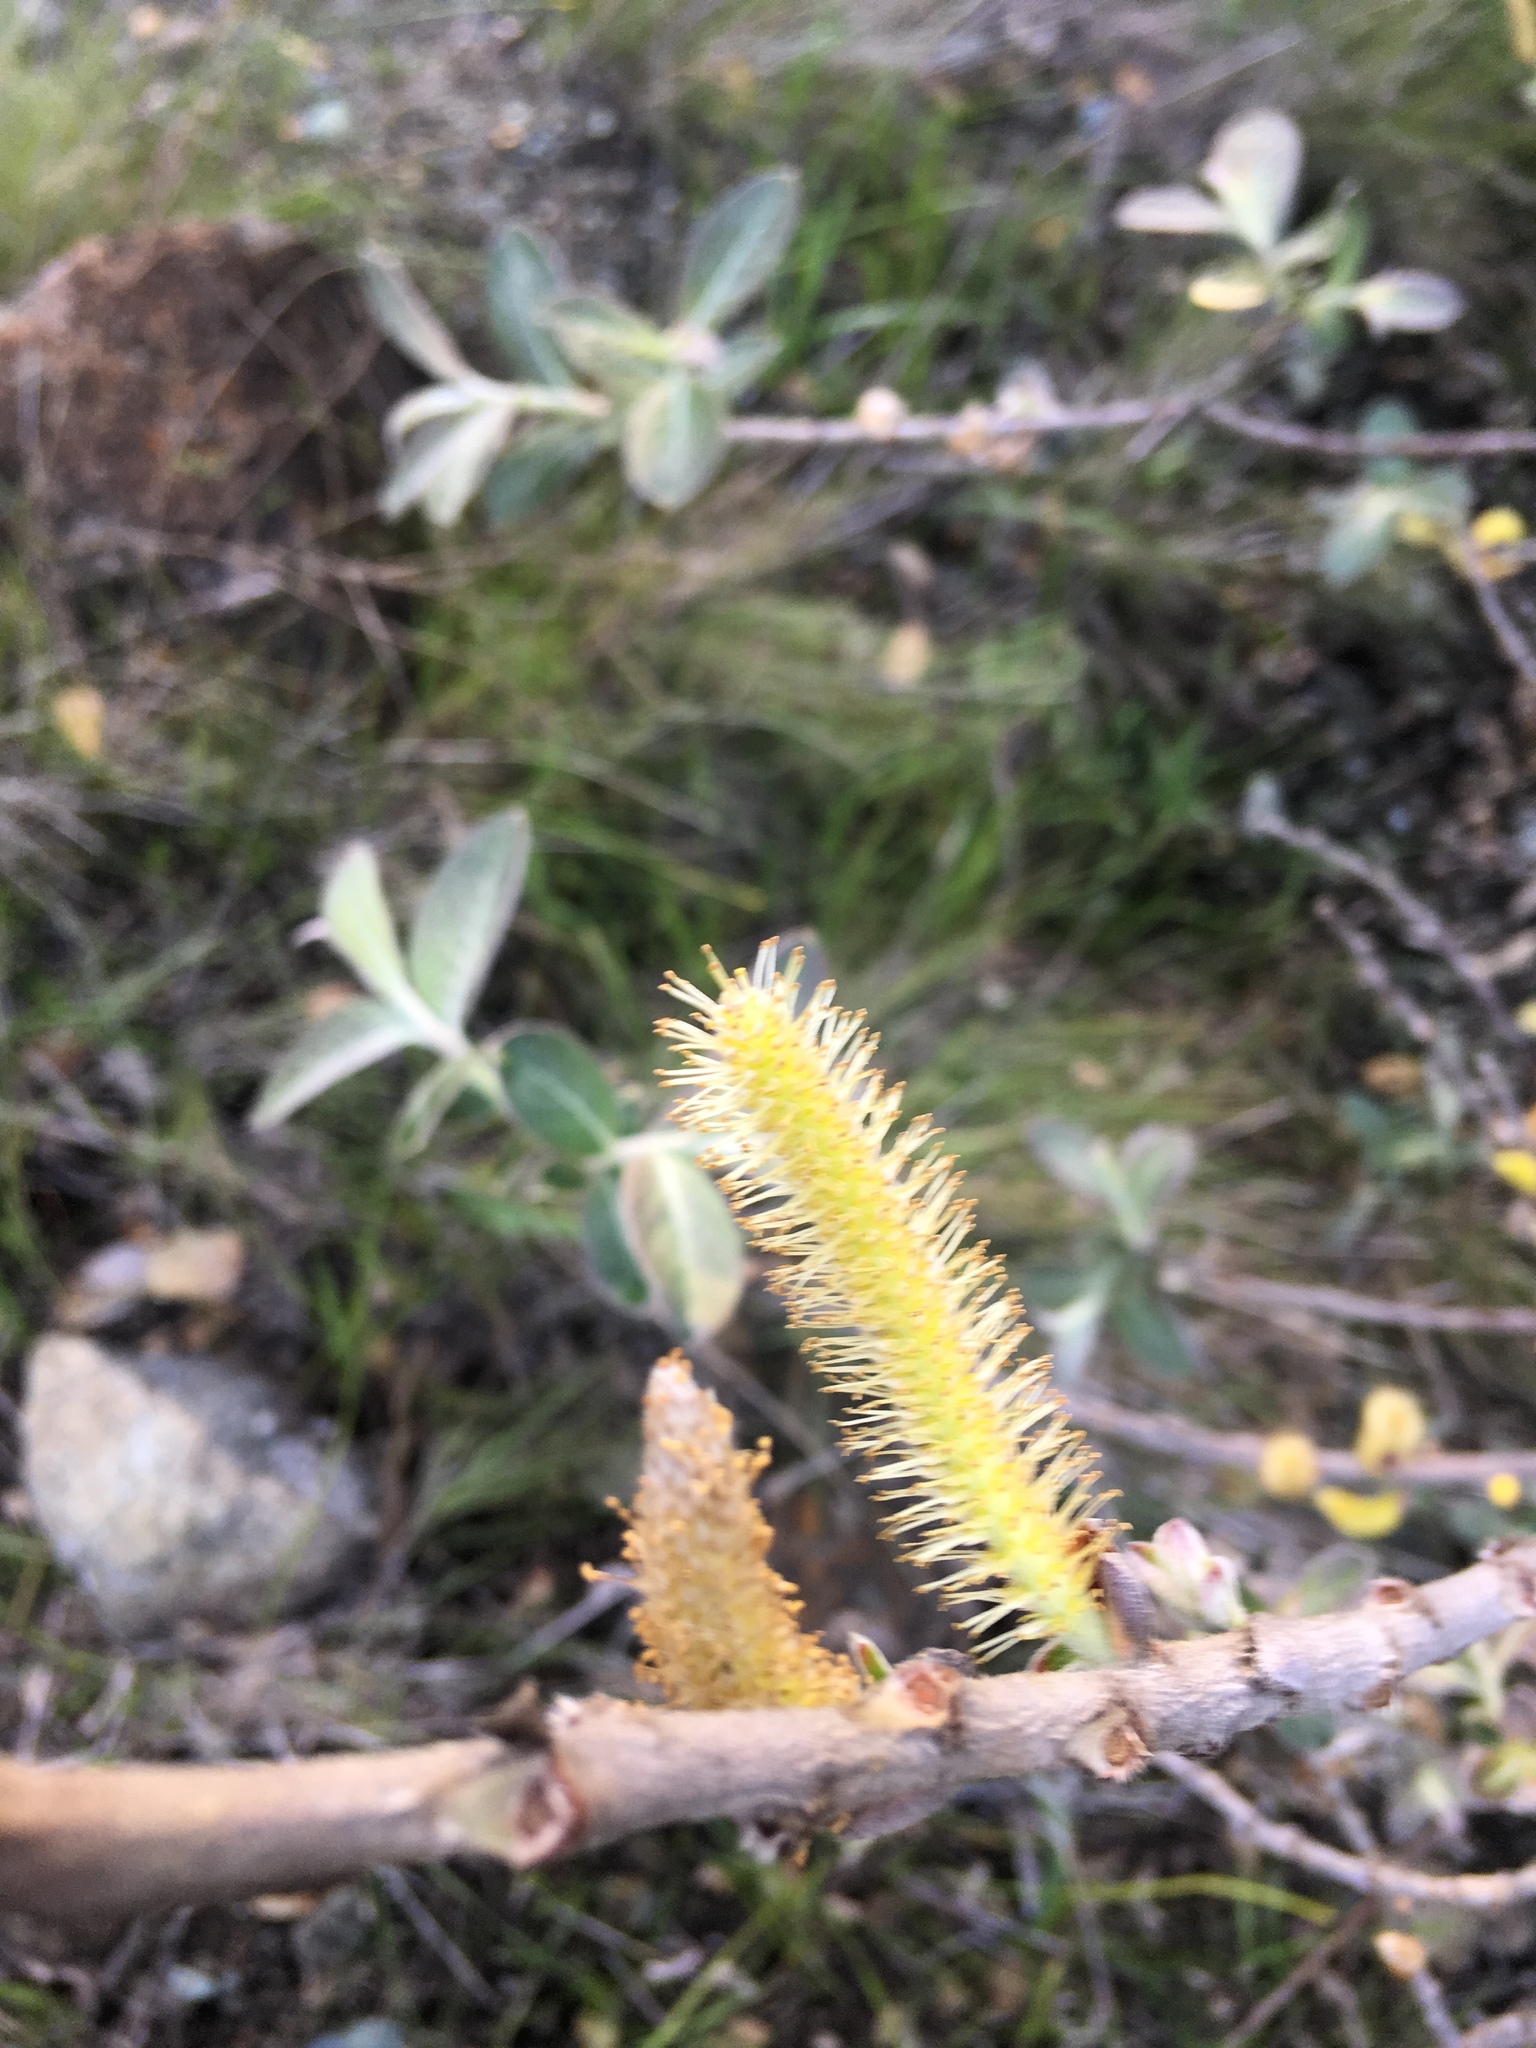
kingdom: Plantae
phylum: Tracheophyta
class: Magnoliopsida
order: Malpighiales
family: Salicaceae
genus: Salix
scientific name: Salix breweri
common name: Brewer’s willow
